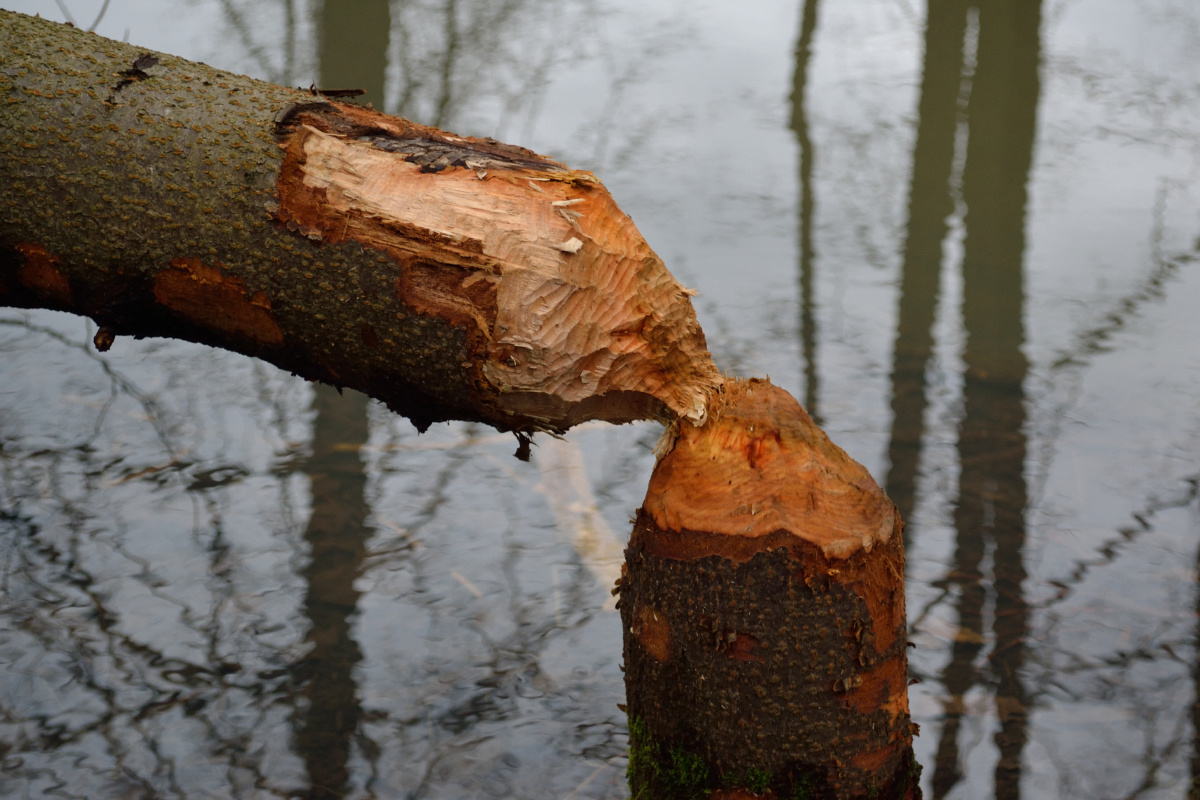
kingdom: Animalia
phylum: Chordata
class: Mammalia
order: Rodentia
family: Castoridae
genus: Castor
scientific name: Castor fiber
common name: Eurasian beaver
